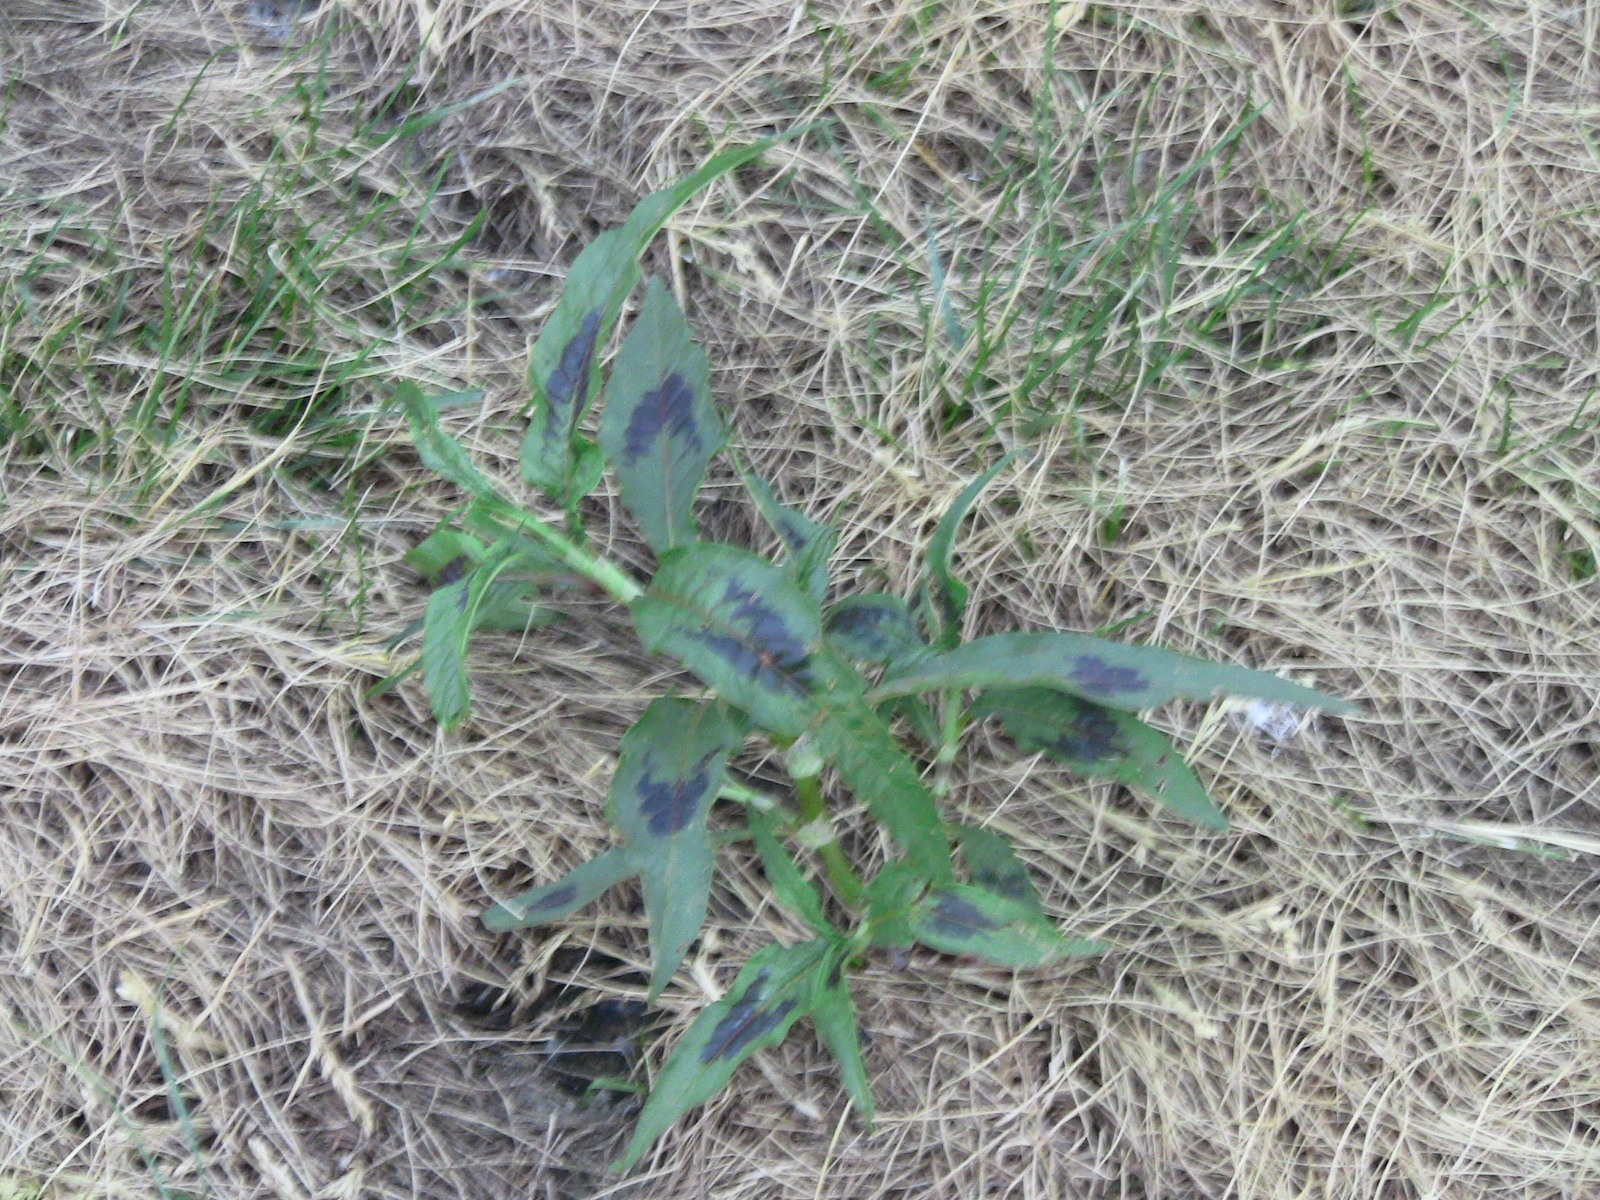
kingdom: Plantae
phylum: Tracheophyta
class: Magnoliopsida
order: Caryophyllales
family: Polygonaceae
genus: Persicaria
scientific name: Persicaria maculosa
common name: Redshank
